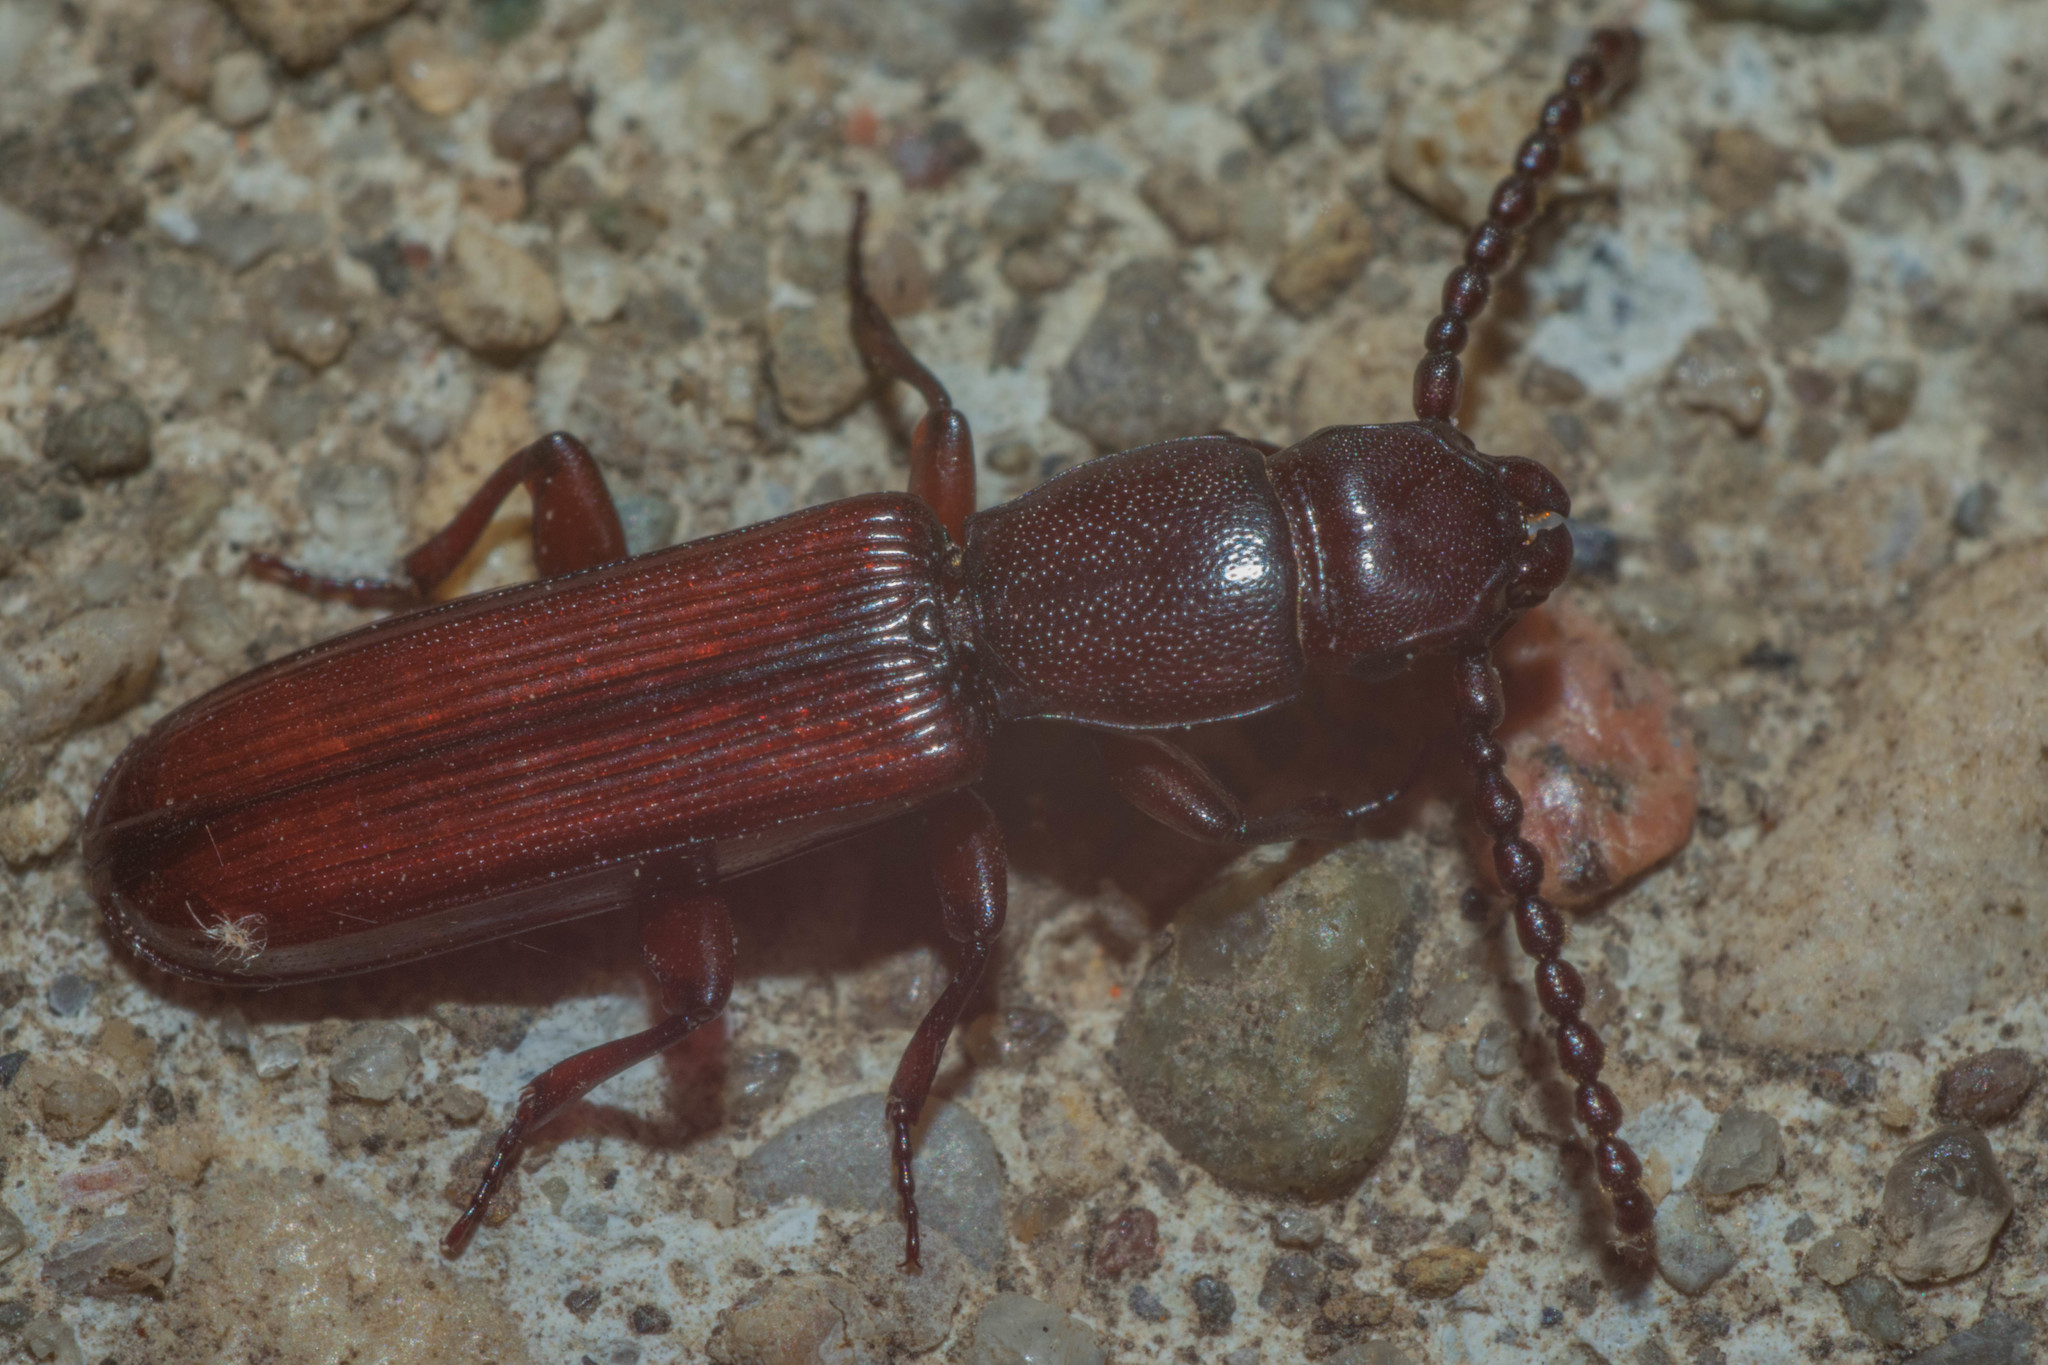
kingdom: Animalia
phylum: Arthropoda
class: Insecta
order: Coleoptera
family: Passandridae
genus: Catogenus
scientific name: Catogenus rufus
